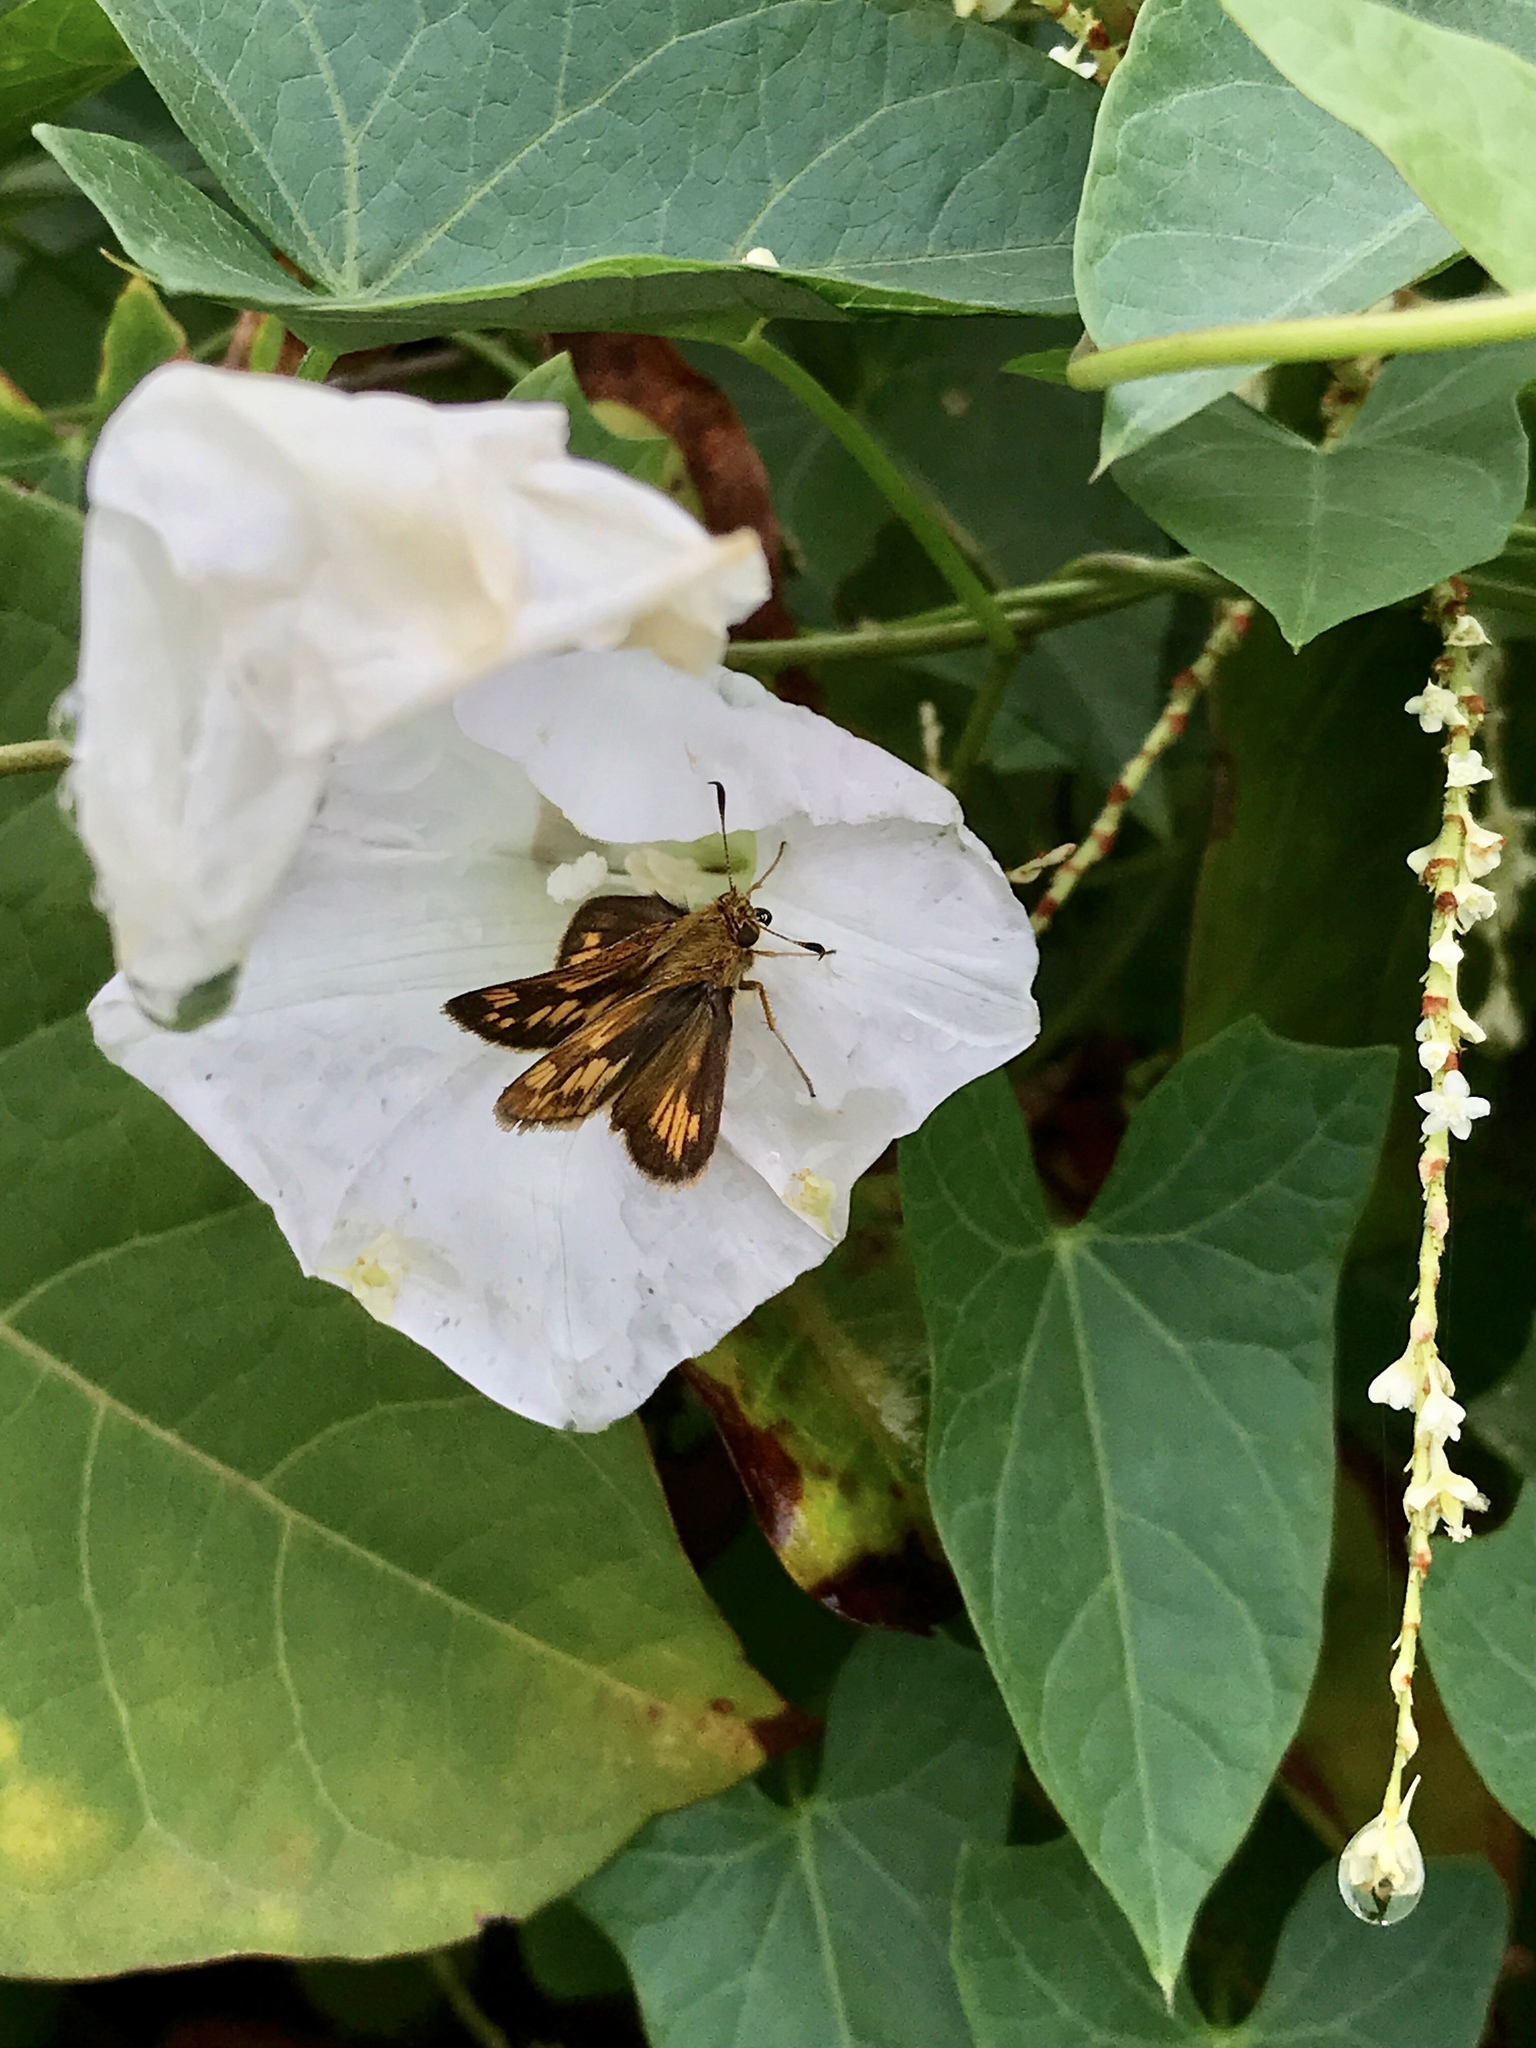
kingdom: Animalia
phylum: Arthropoda
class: Insecta
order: Lepidoptera
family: Hesperiidae
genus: Polites
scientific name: Polites coras
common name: Peck's skipper
